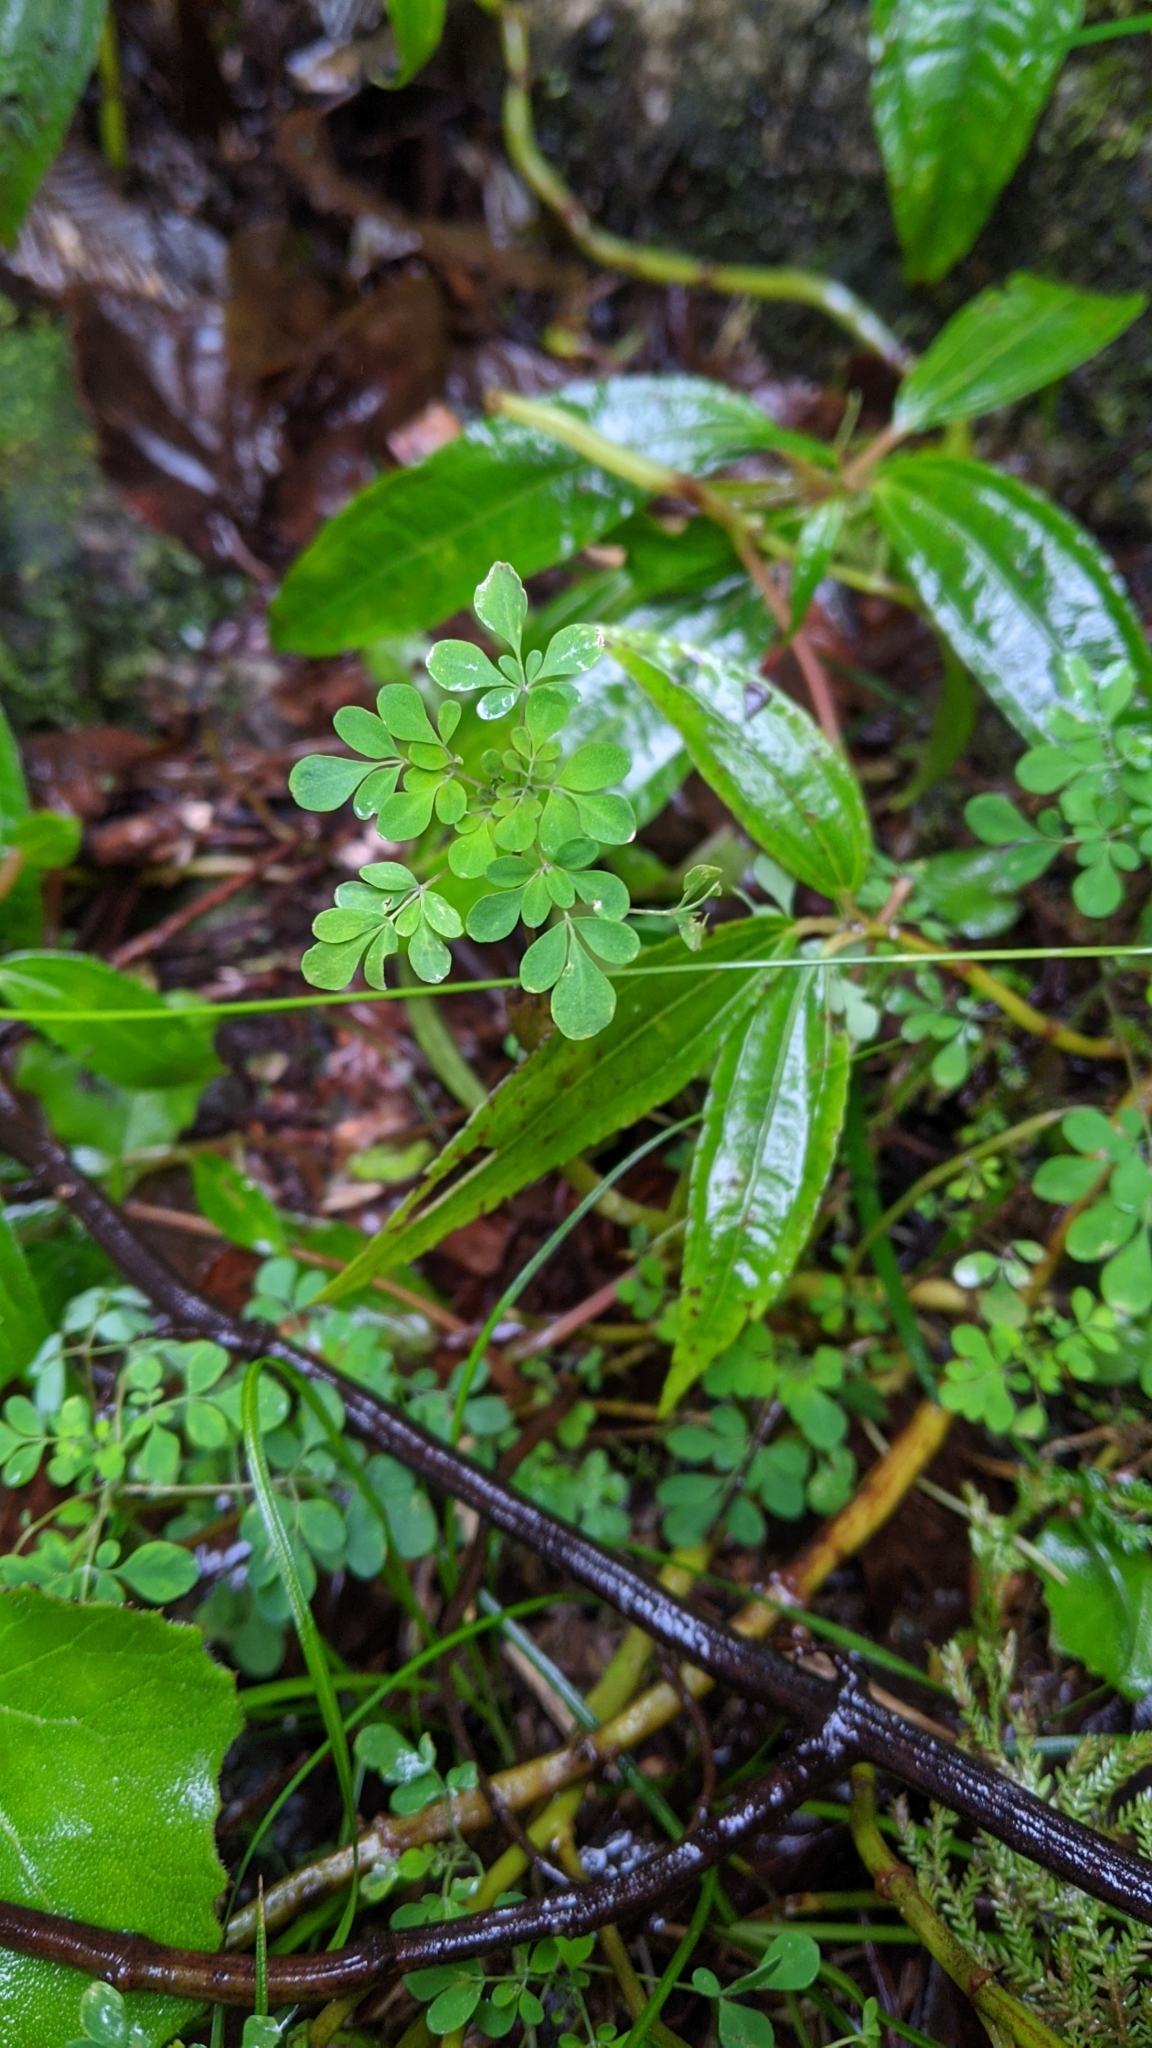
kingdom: Plantae
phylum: Tracheophyta
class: Magnoliopsida
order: Sapindales
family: Rutaceae
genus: Boenninghausenia
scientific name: Boenninghausenia albiflora
